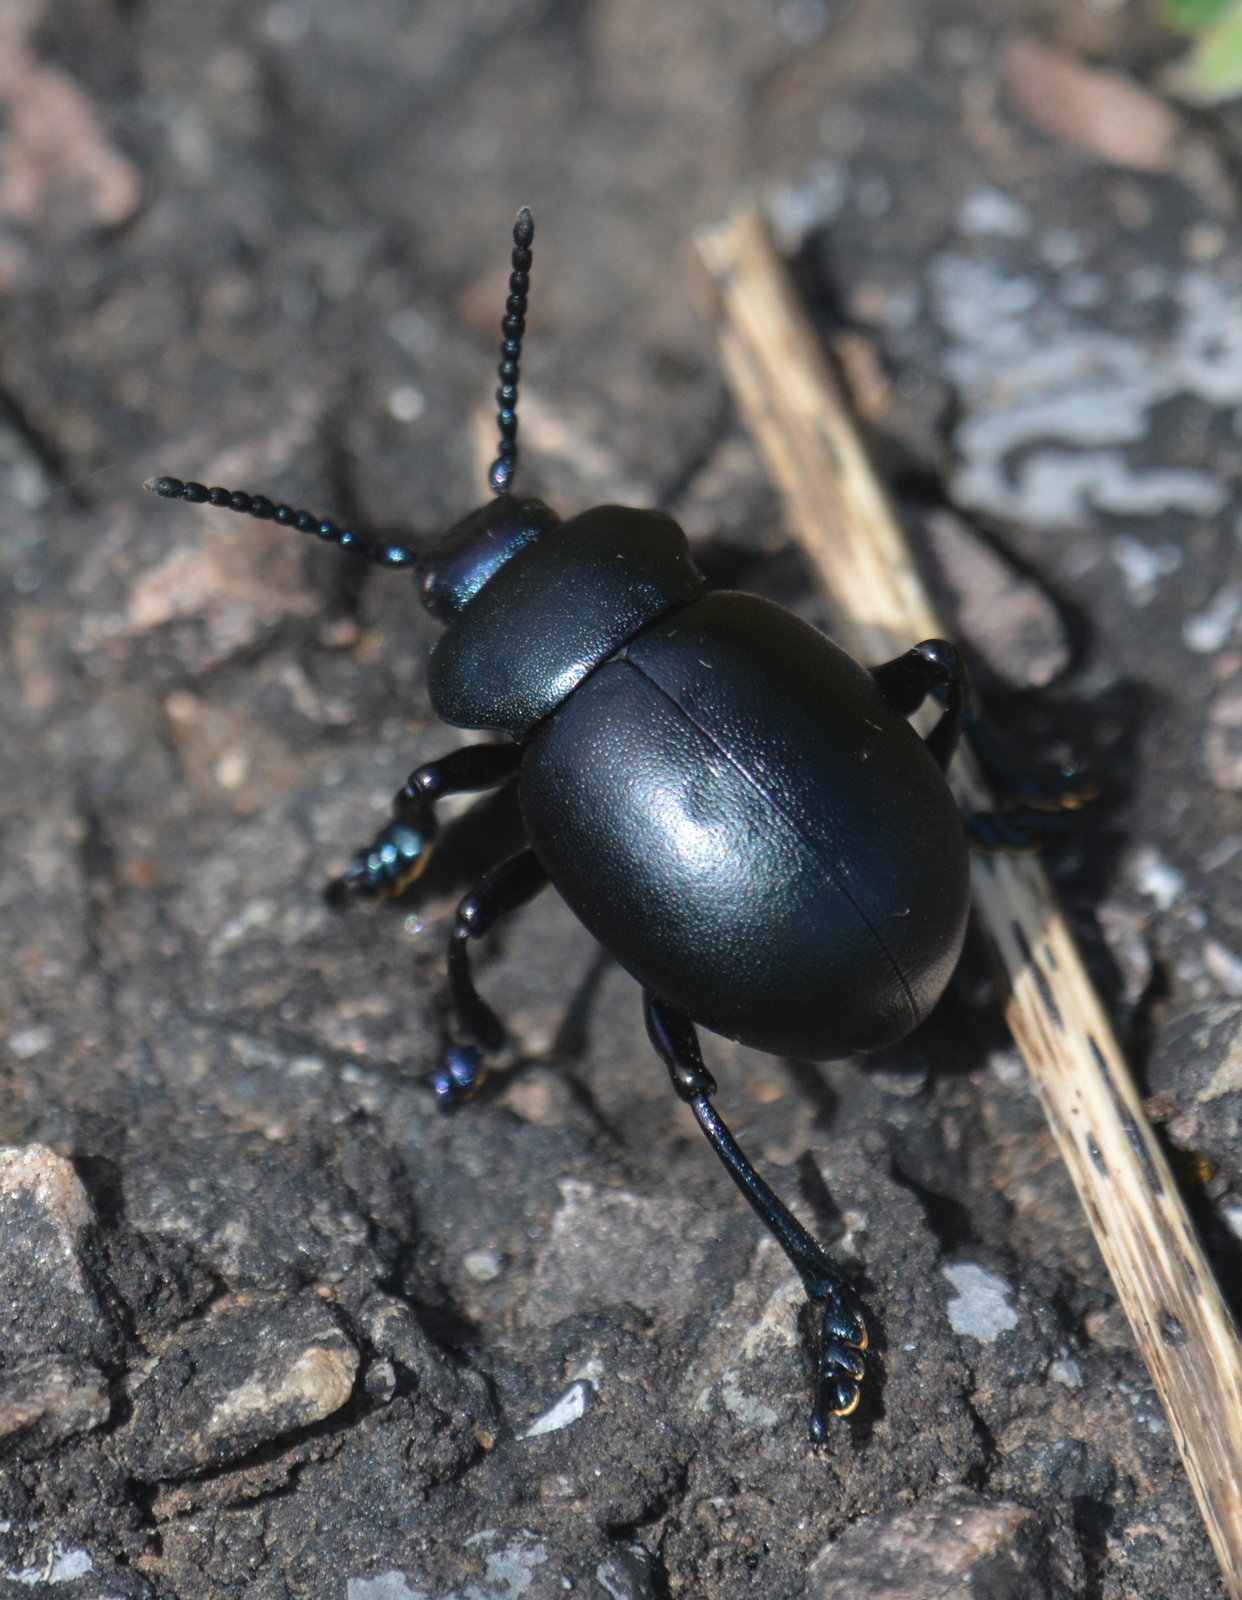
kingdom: Animalia
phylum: Arthropoda
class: Insecta
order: Coleoptera
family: Chrysomelidae
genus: Timarcha
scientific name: Timarcha tenebricosa
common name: Bloody-nosed beetle
